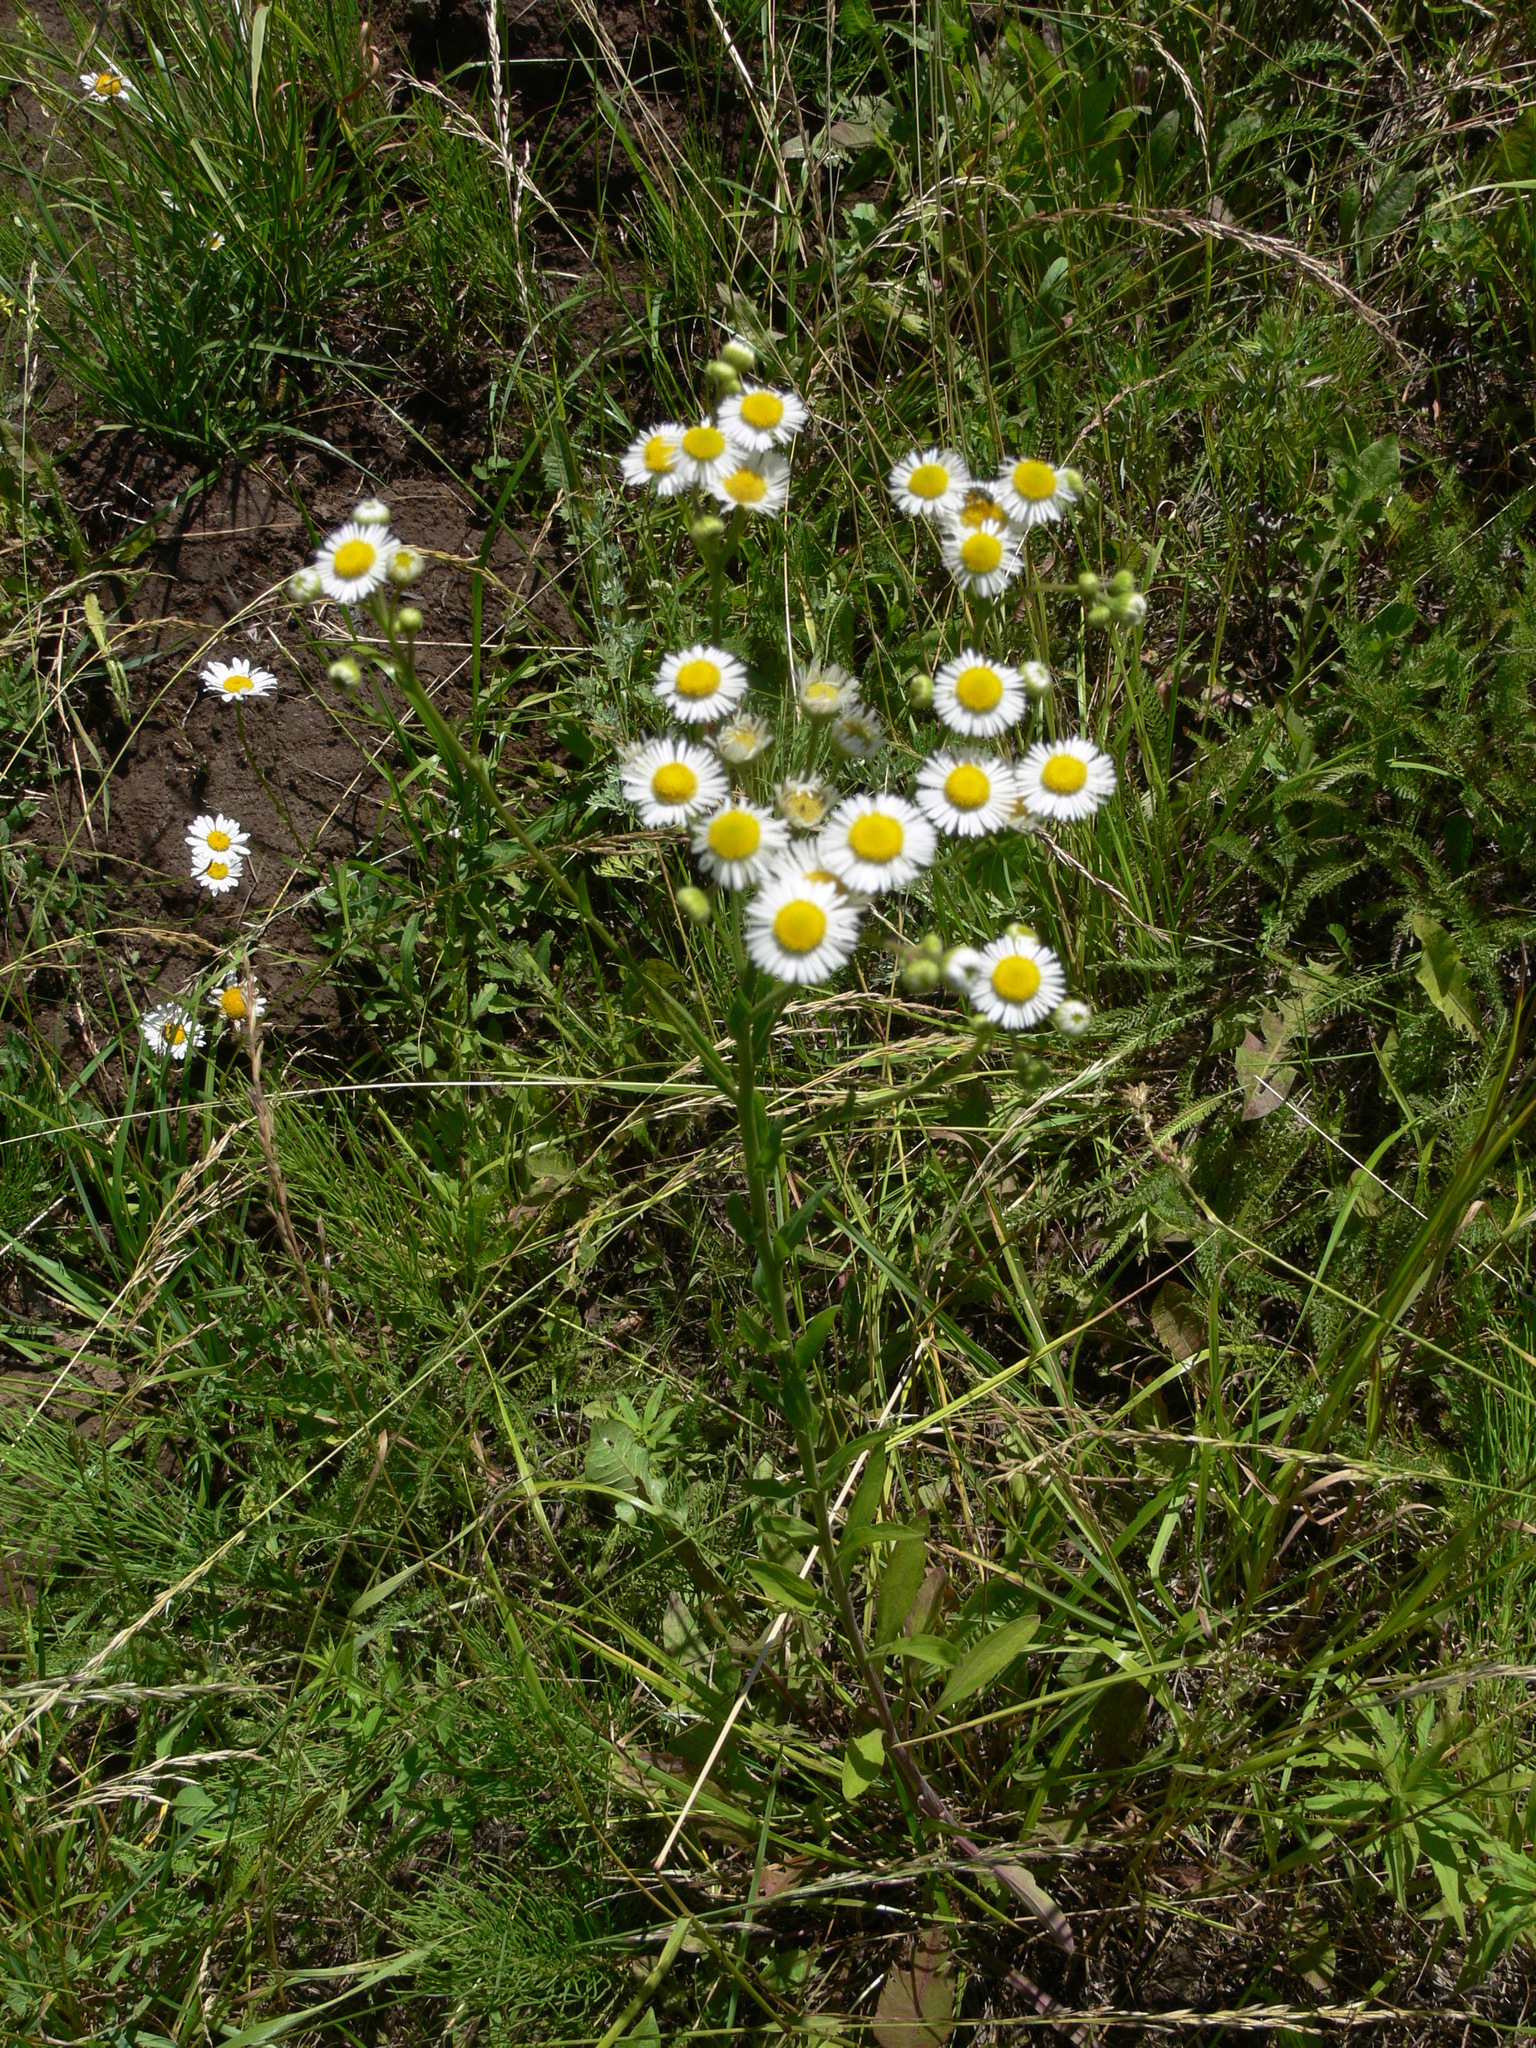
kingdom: Plantae
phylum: Tracheophyta
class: Magnoliopsida
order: Asterales
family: Asteraceae
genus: Erigeron
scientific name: Erigeron annuus
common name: Tall fleabane
